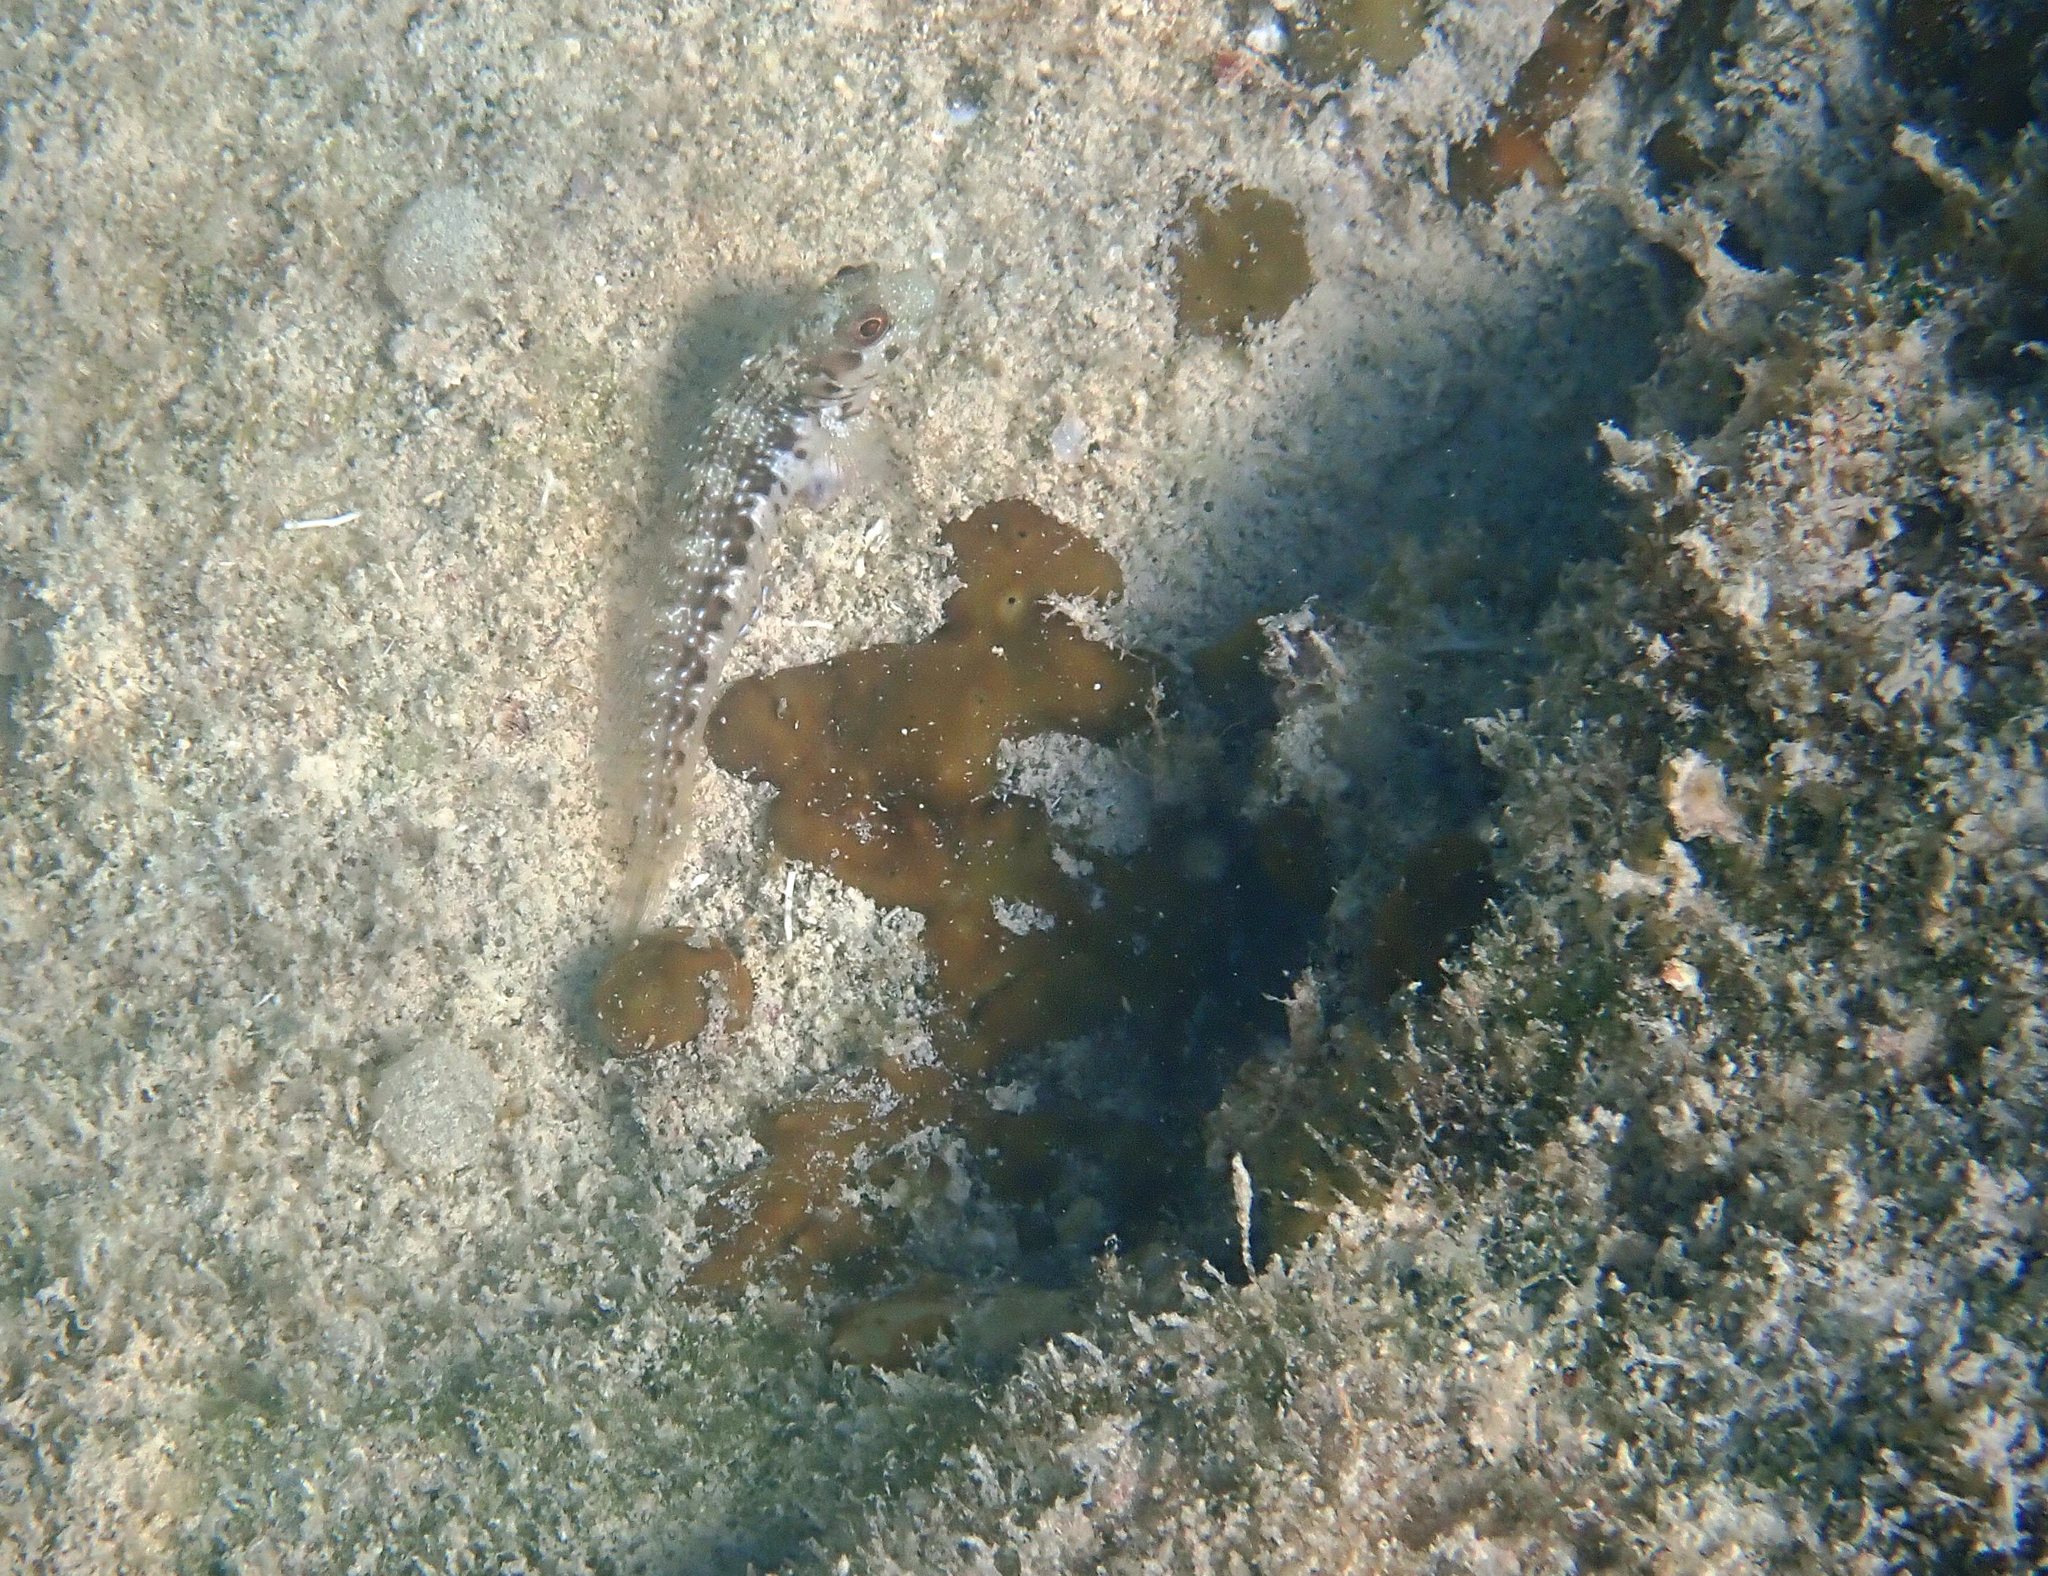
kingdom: Animalia
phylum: Chordata
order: Perciformes
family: Blenniidae
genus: Scartella
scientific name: Scartella cristata
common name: Molly miller
